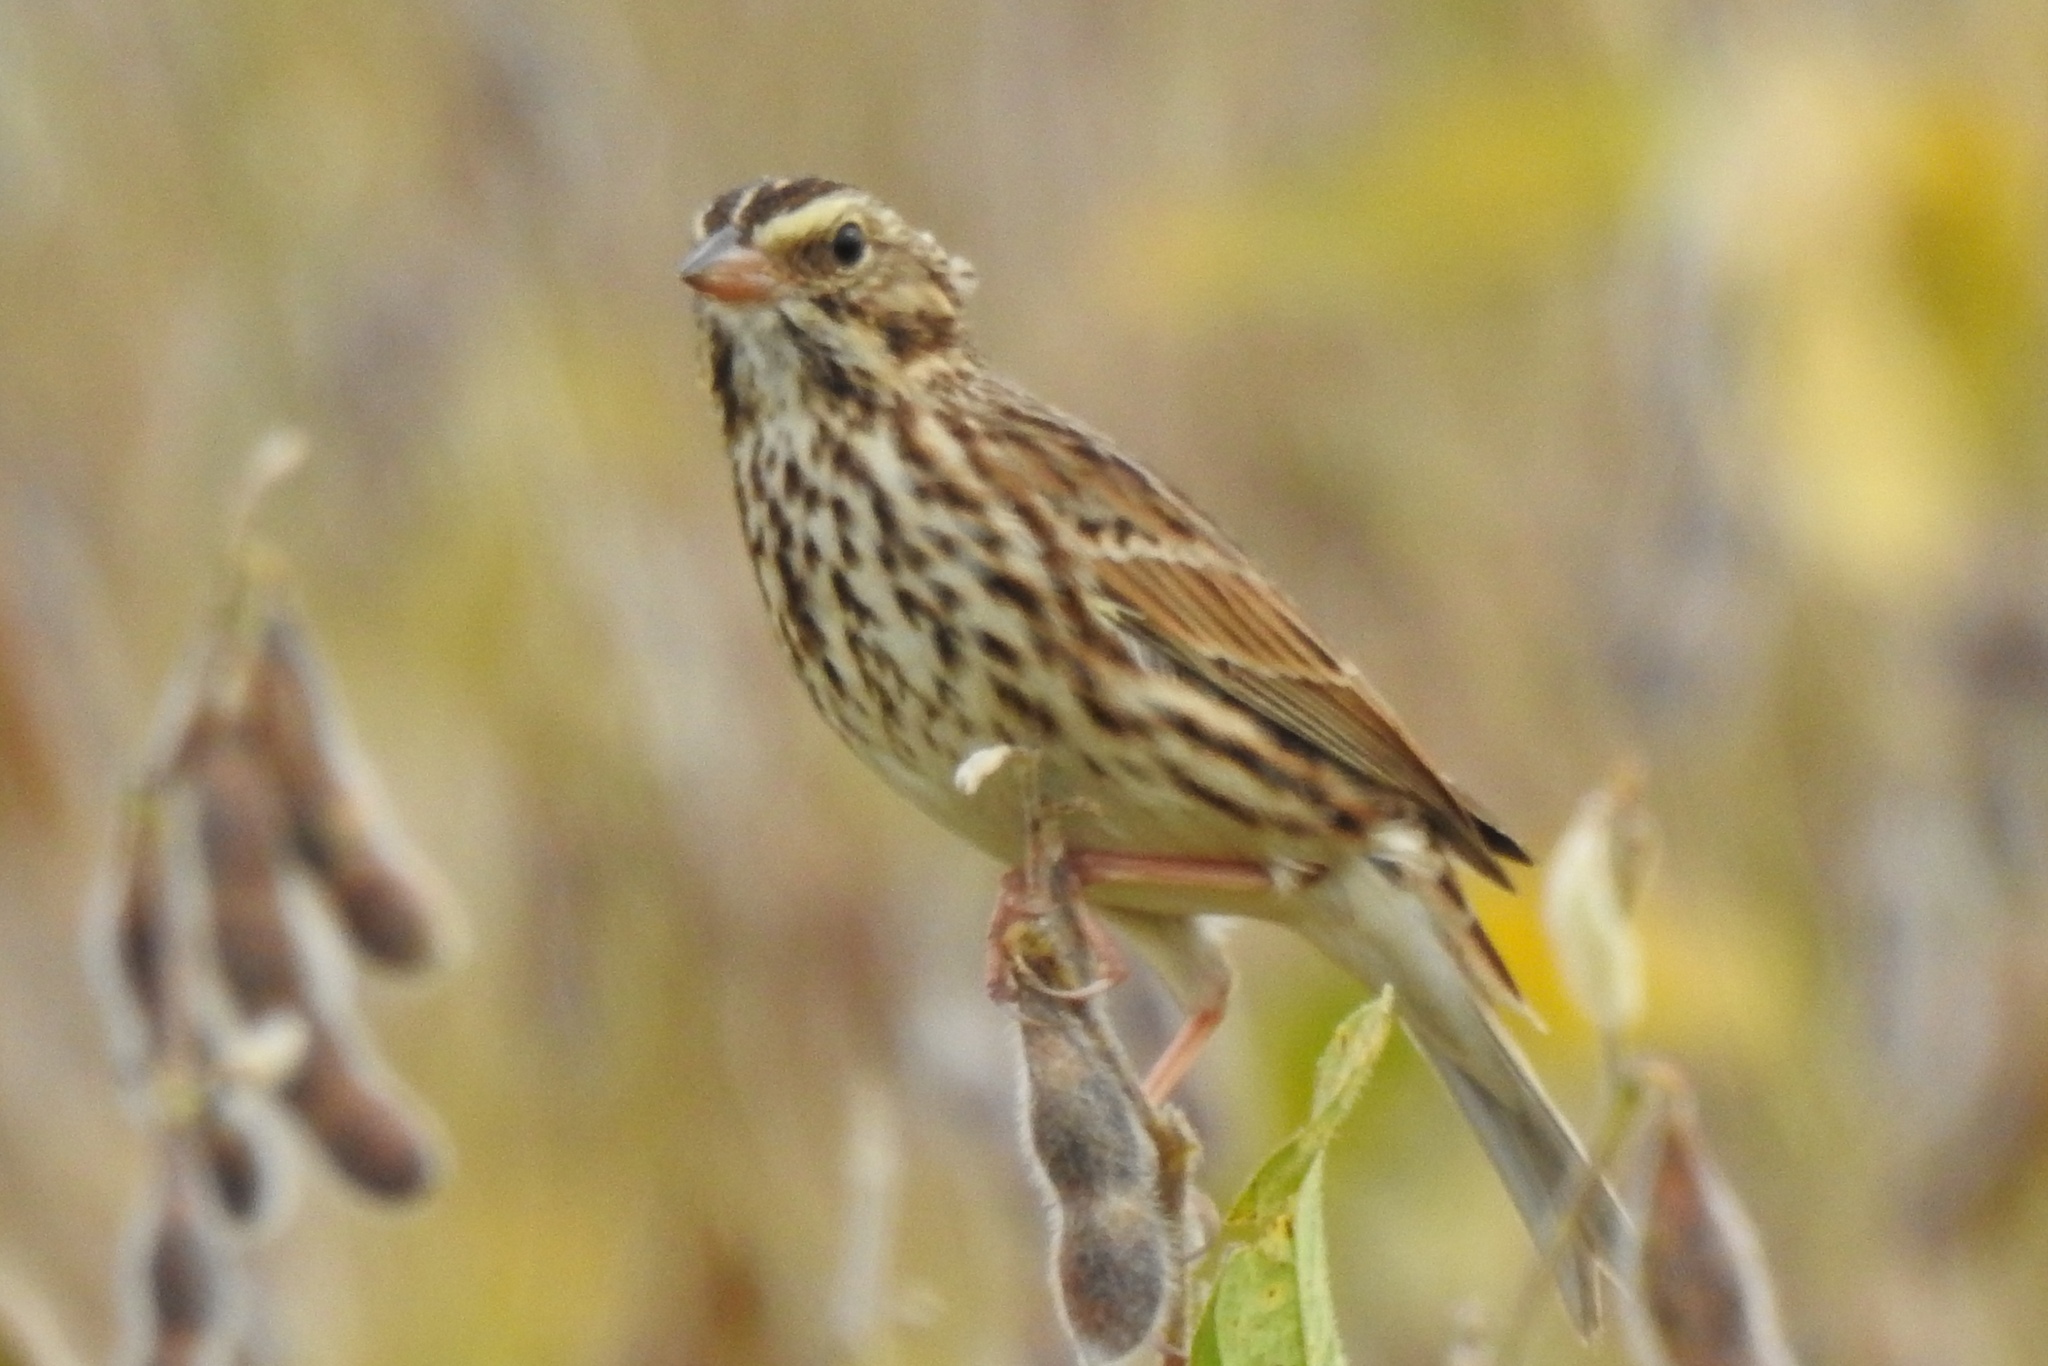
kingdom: Animalia
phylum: Chordata
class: Aves
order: Passeriformes
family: Passerellidae
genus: Passerculus
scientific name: Passerculus sandwichensis
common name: Savannah sparrow
